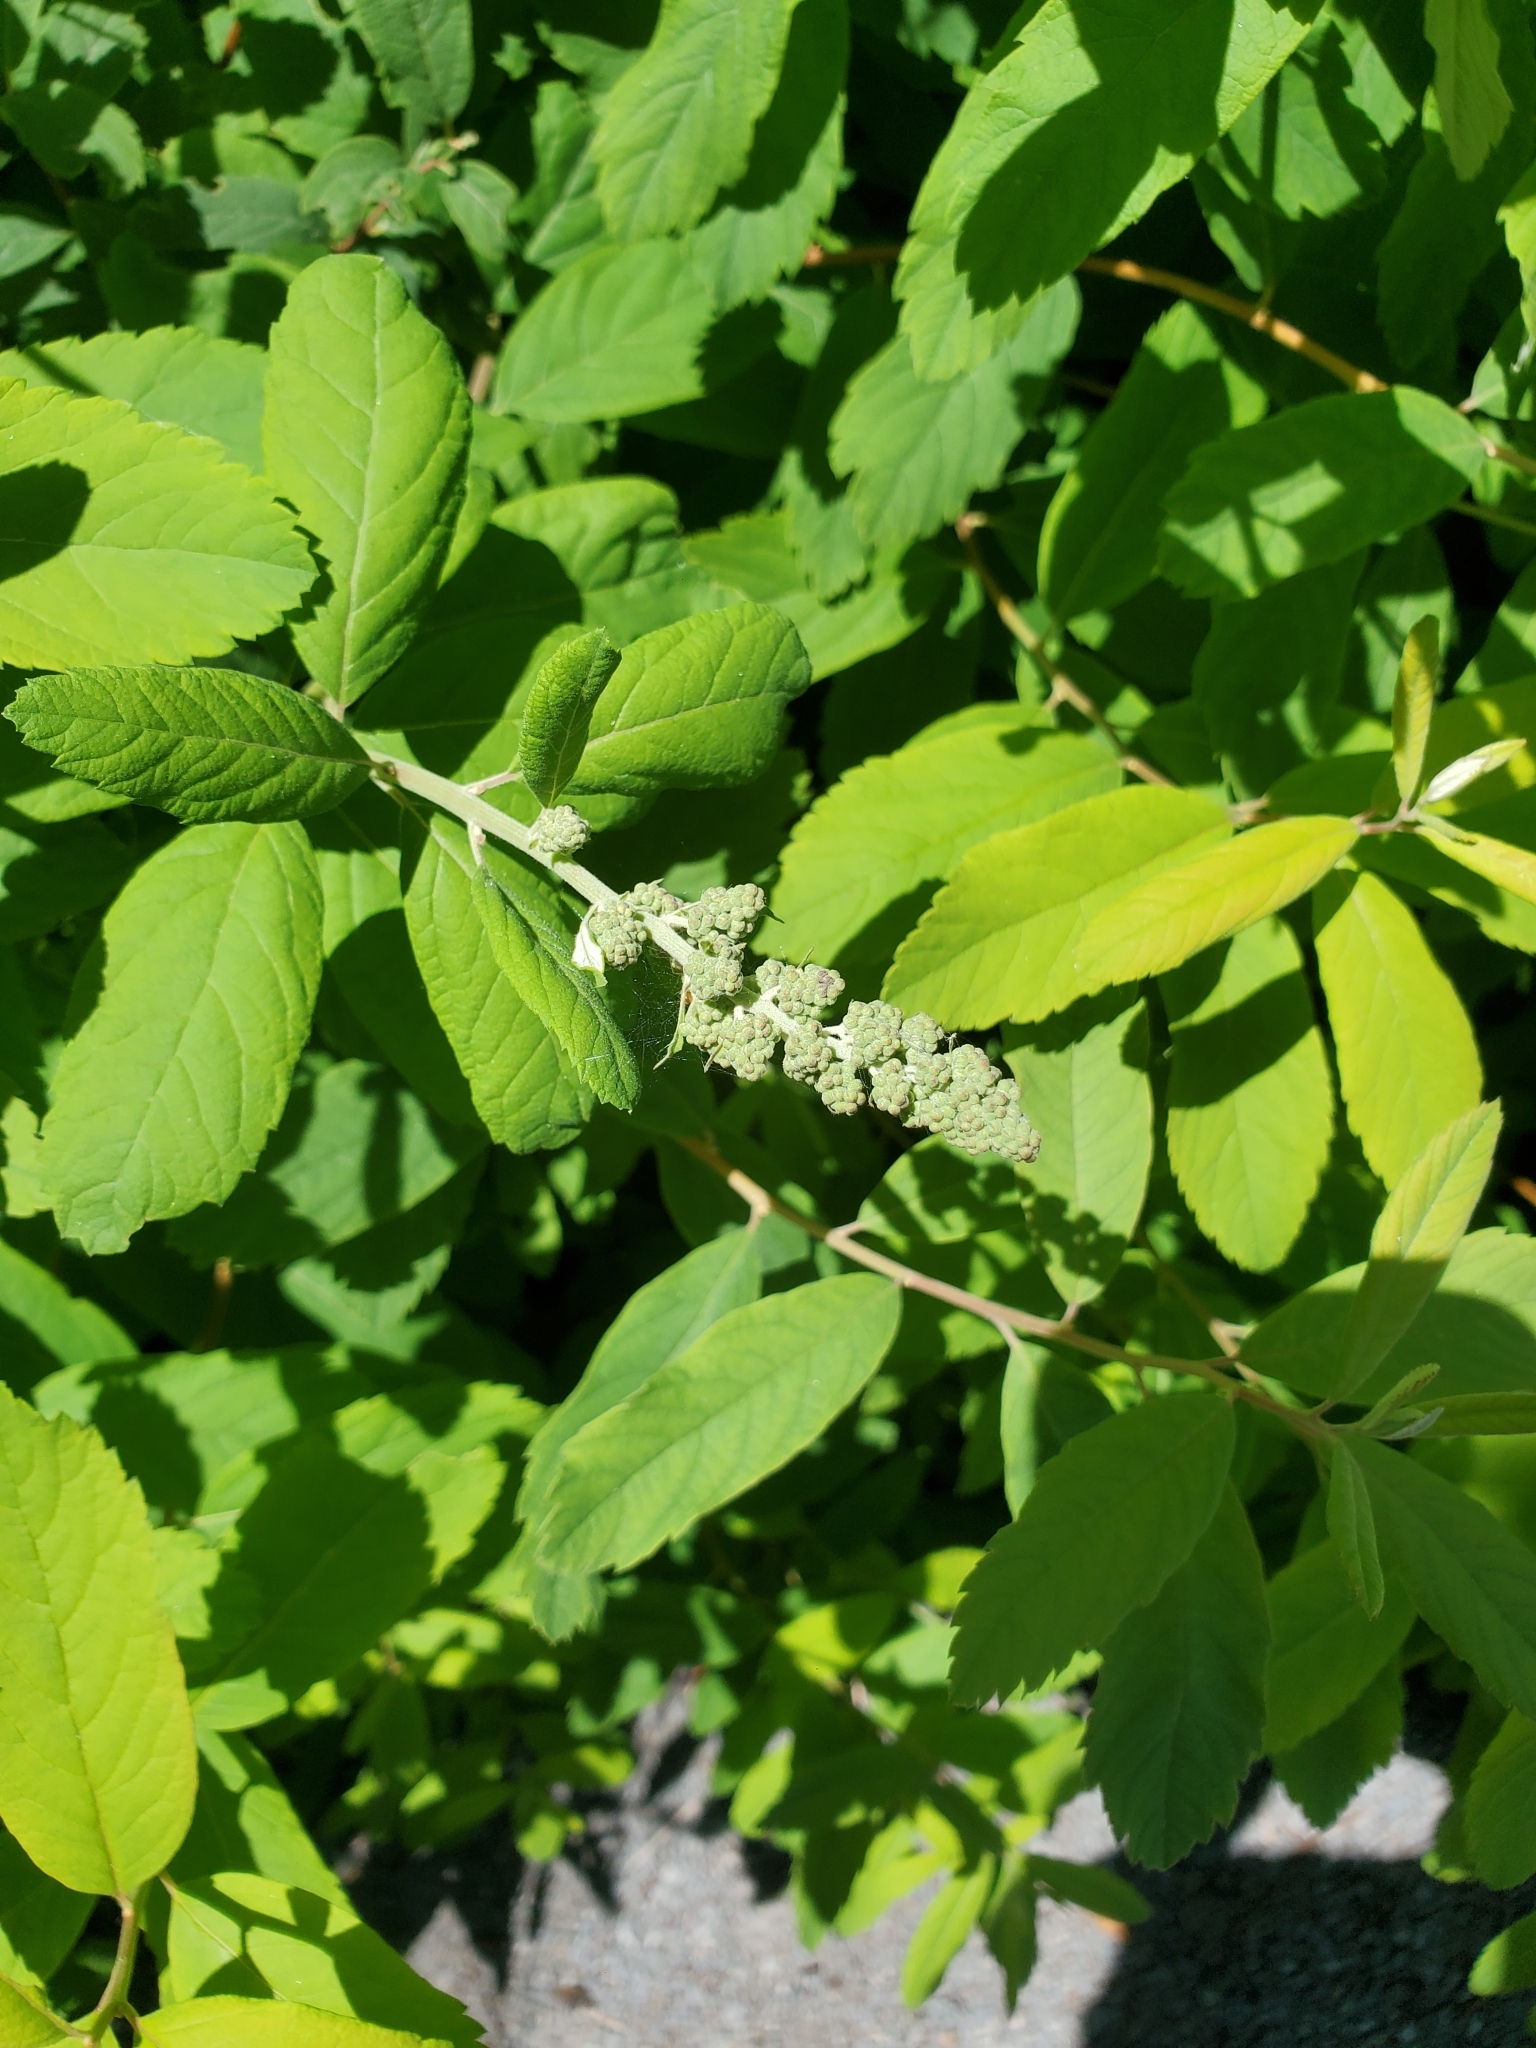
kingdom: Plantae
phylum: Tracheophyta
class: Magnoliopsida
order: Rosales
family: Rosaceae
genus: Spiraea
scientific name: Spiraea douglasii
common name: Steeplebush
